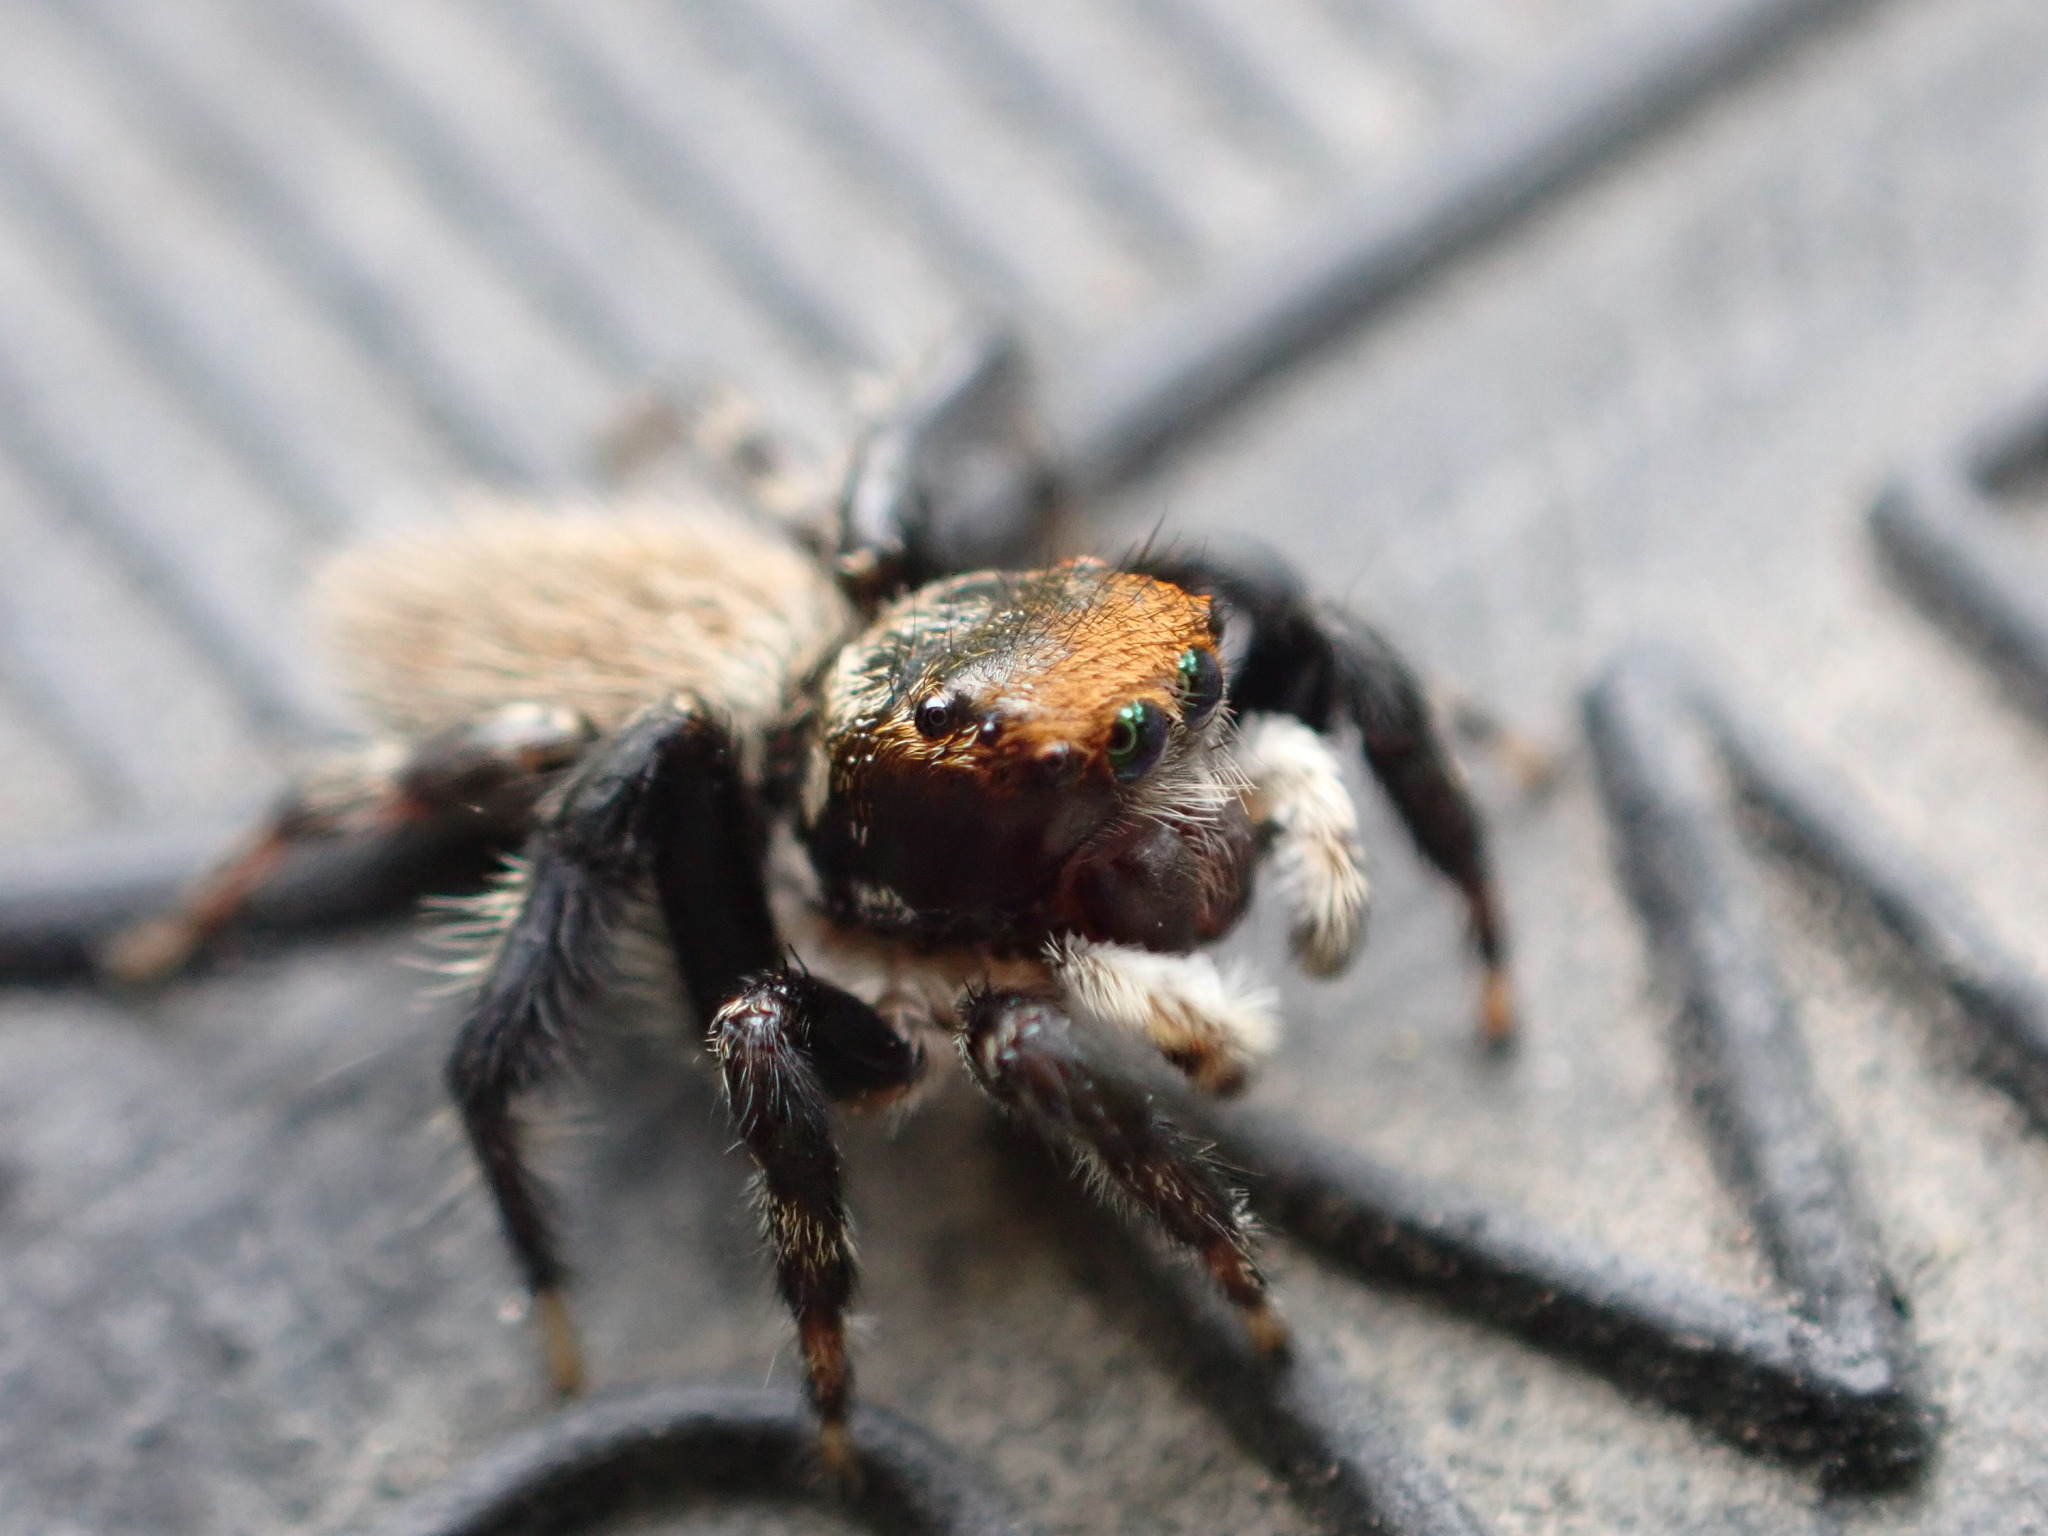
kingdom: Animalia
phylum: Arthropoda
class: Arachnida
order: Araneae
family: Salticidae
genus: Maratus
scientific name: Maratus griseus
